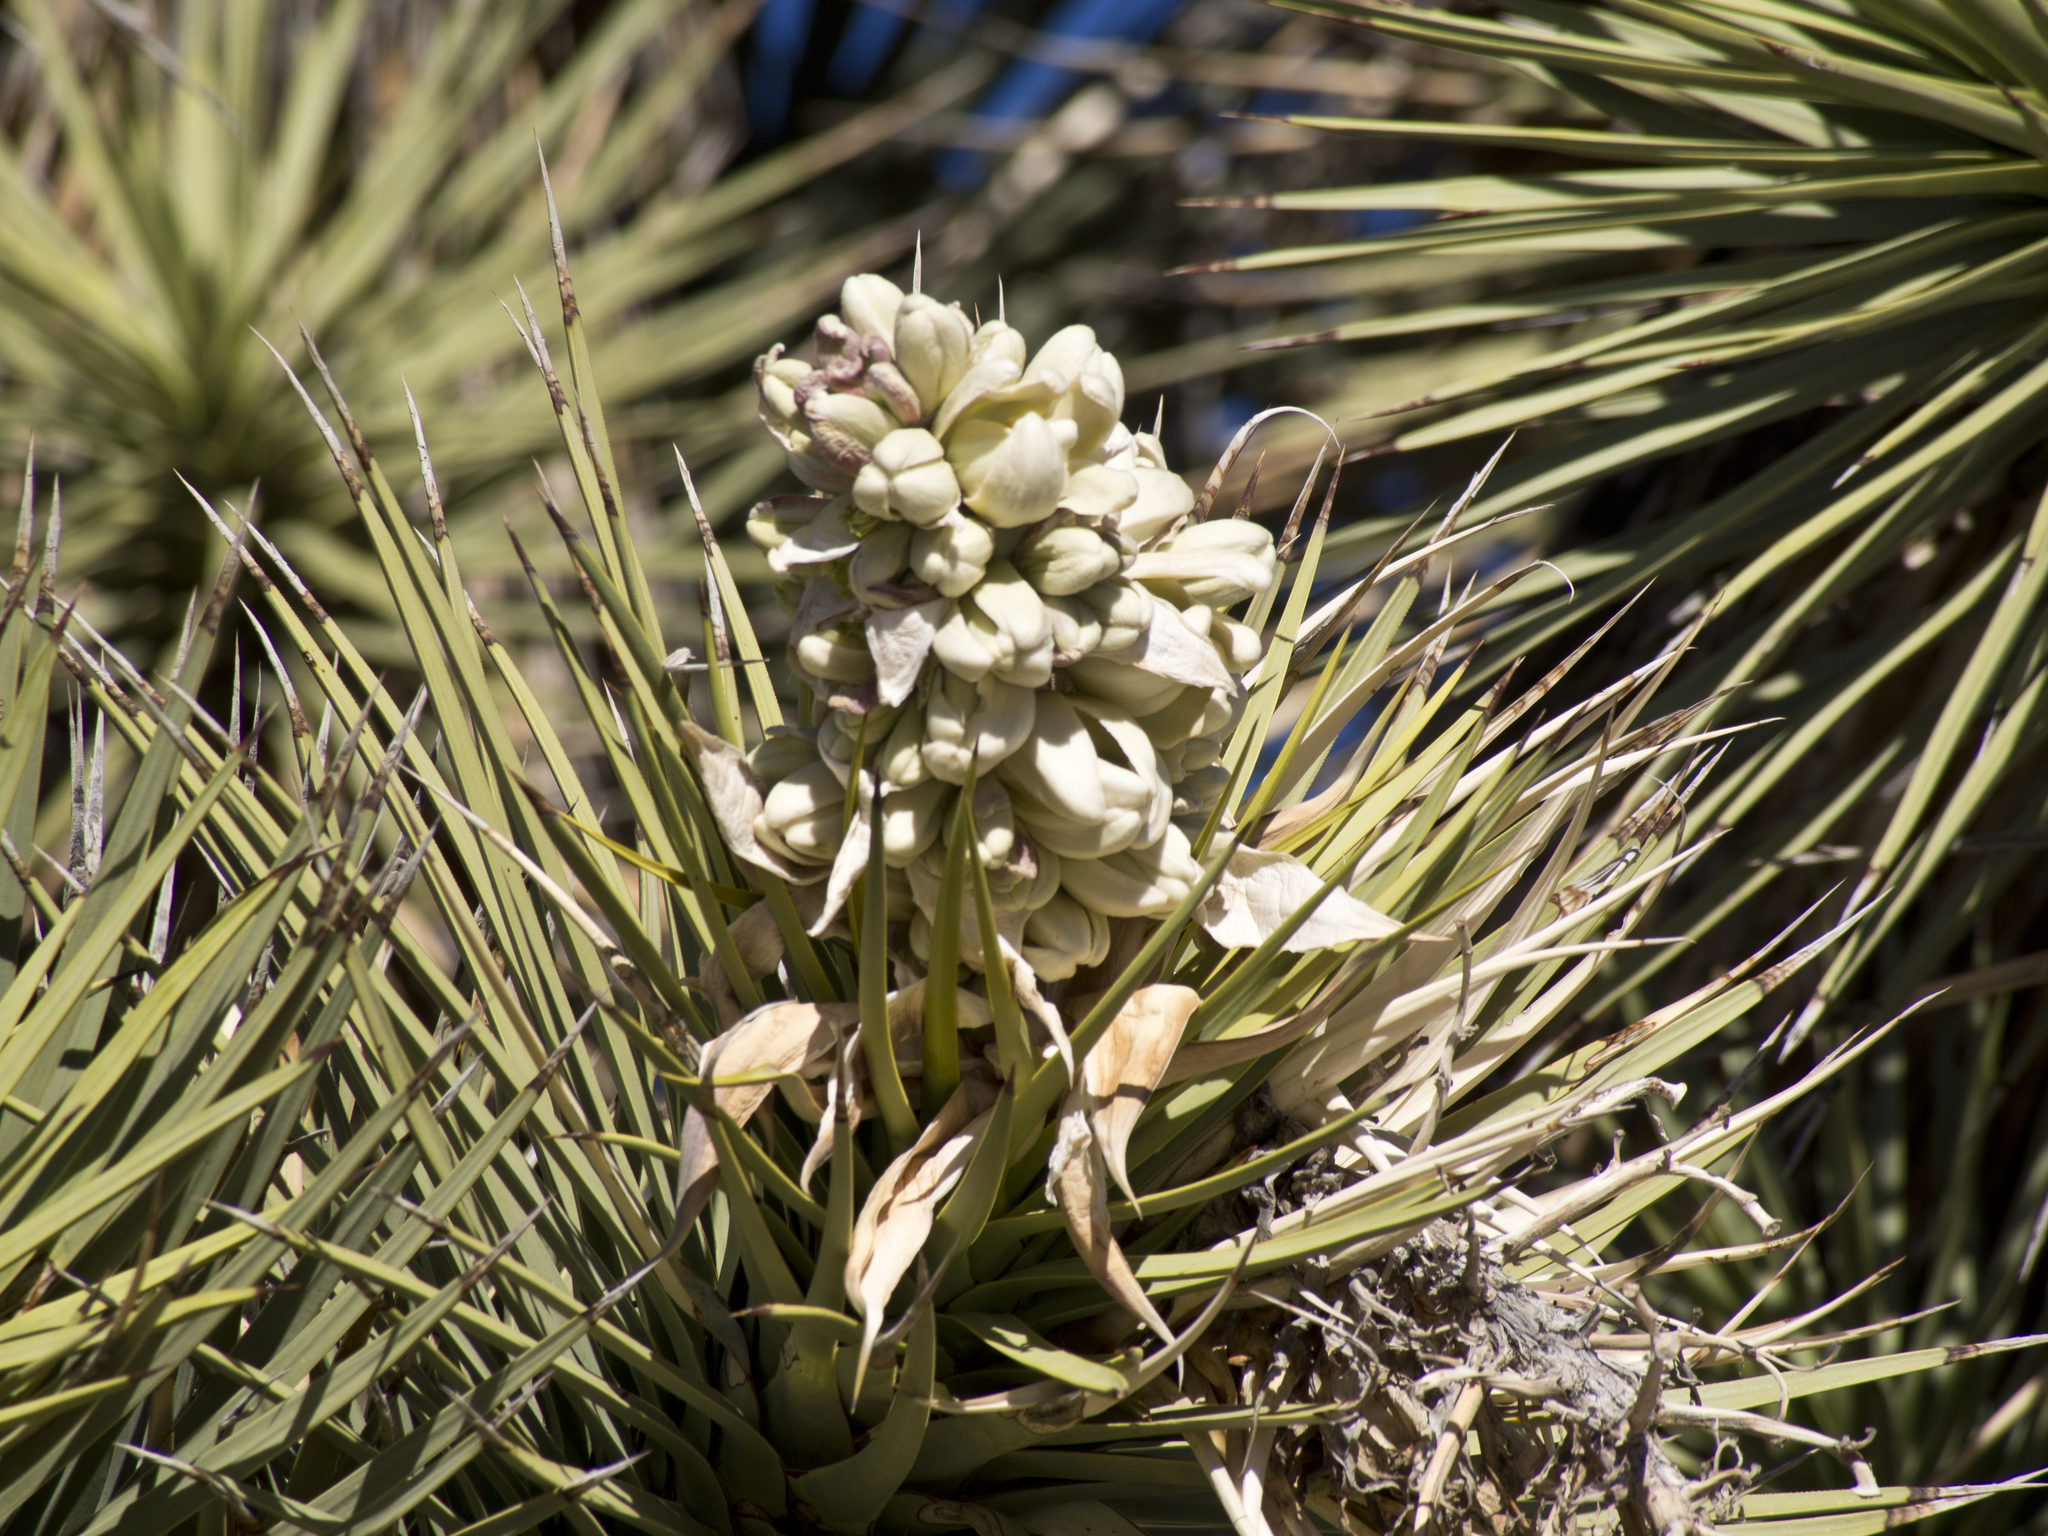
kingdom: Plantae
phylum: Tracheophyta
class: Liliopsida
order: Asparagales
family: Asparagaceae
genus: Yucca
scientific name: Yucca brevifolia
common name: Joshua tree
